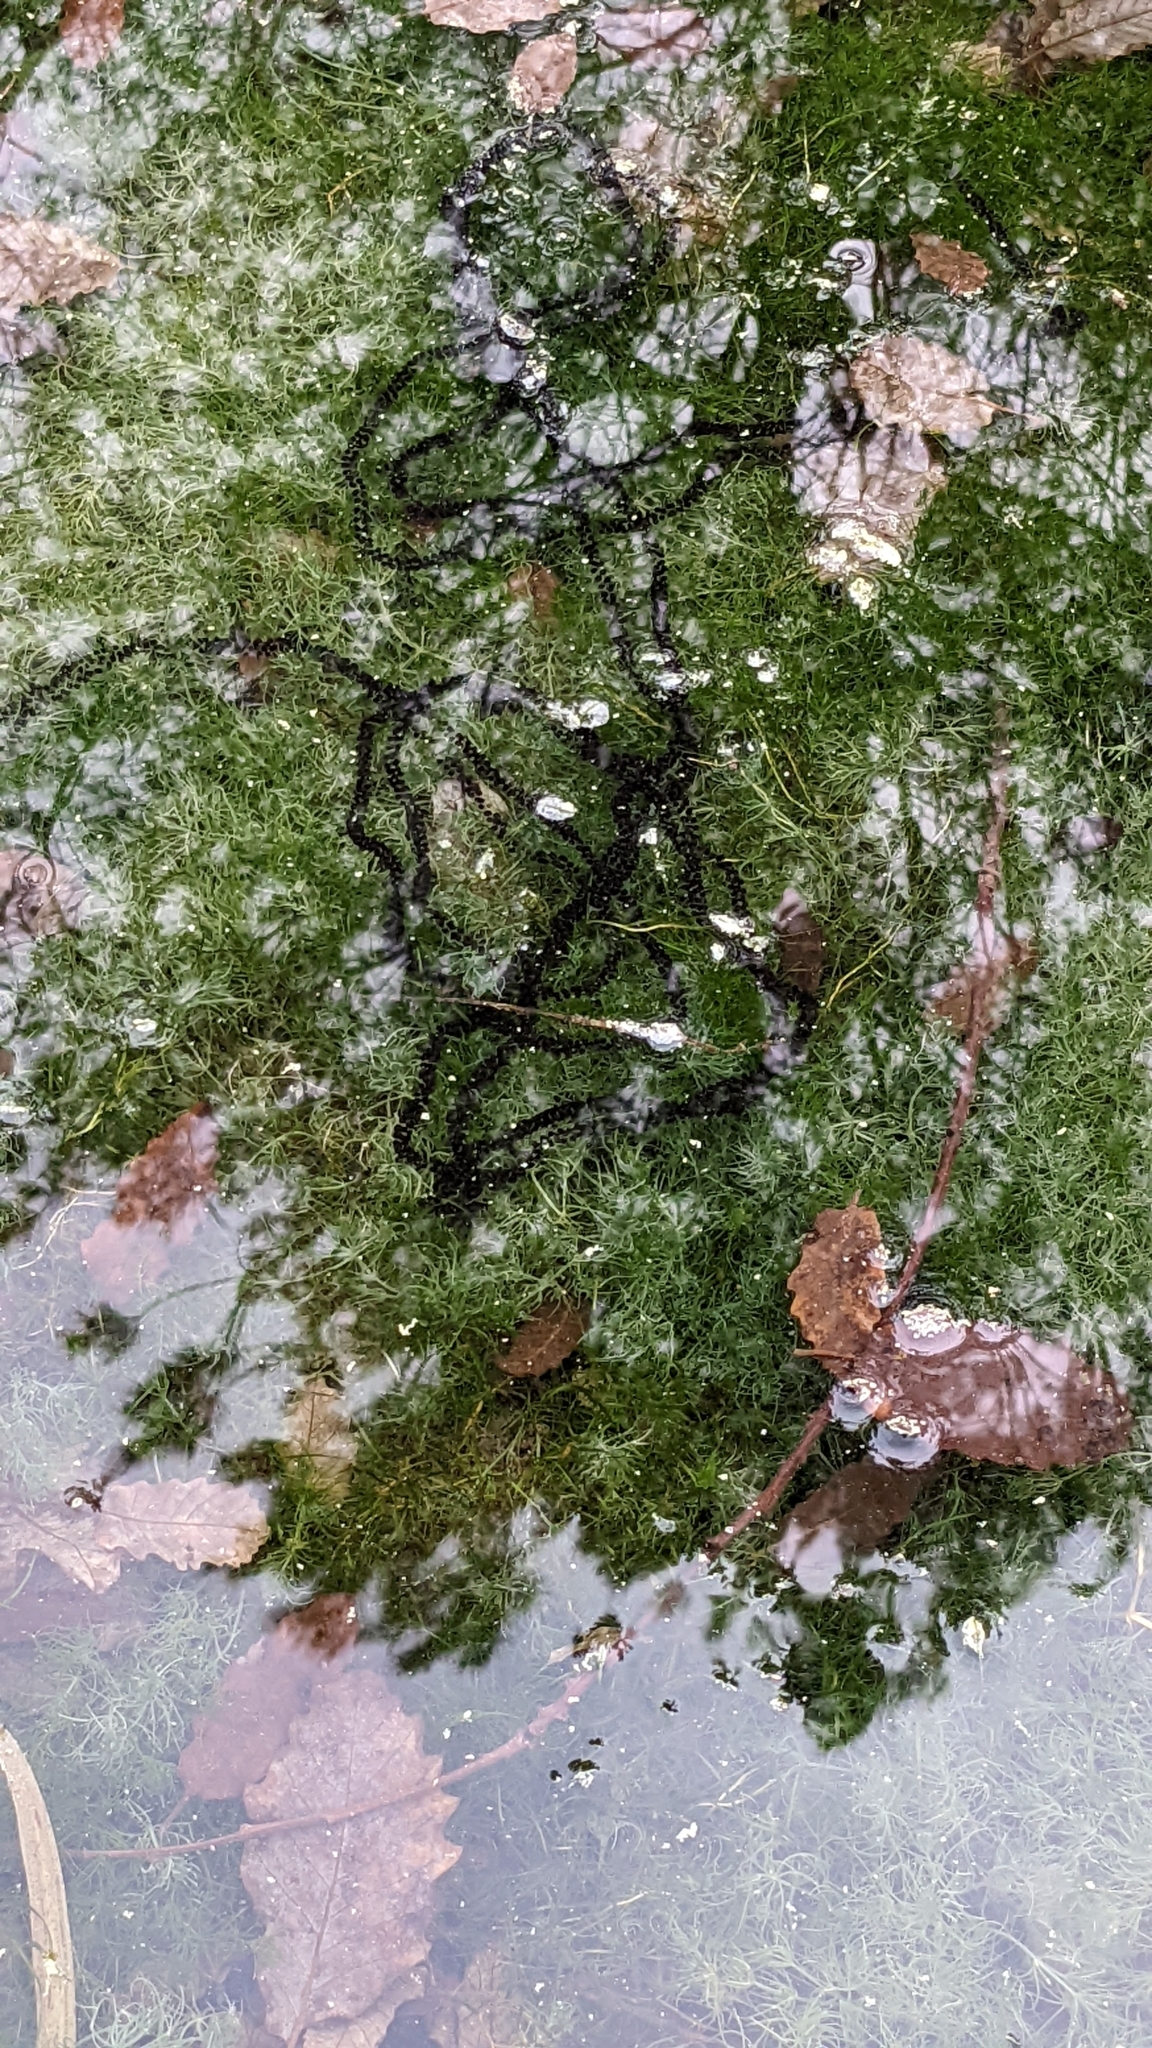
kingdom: Animalia
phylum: Chordata
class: Amphibia
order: Anura
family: Bufonidae
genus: Bufo
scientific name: Bufo spinosus
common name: Western common toad
